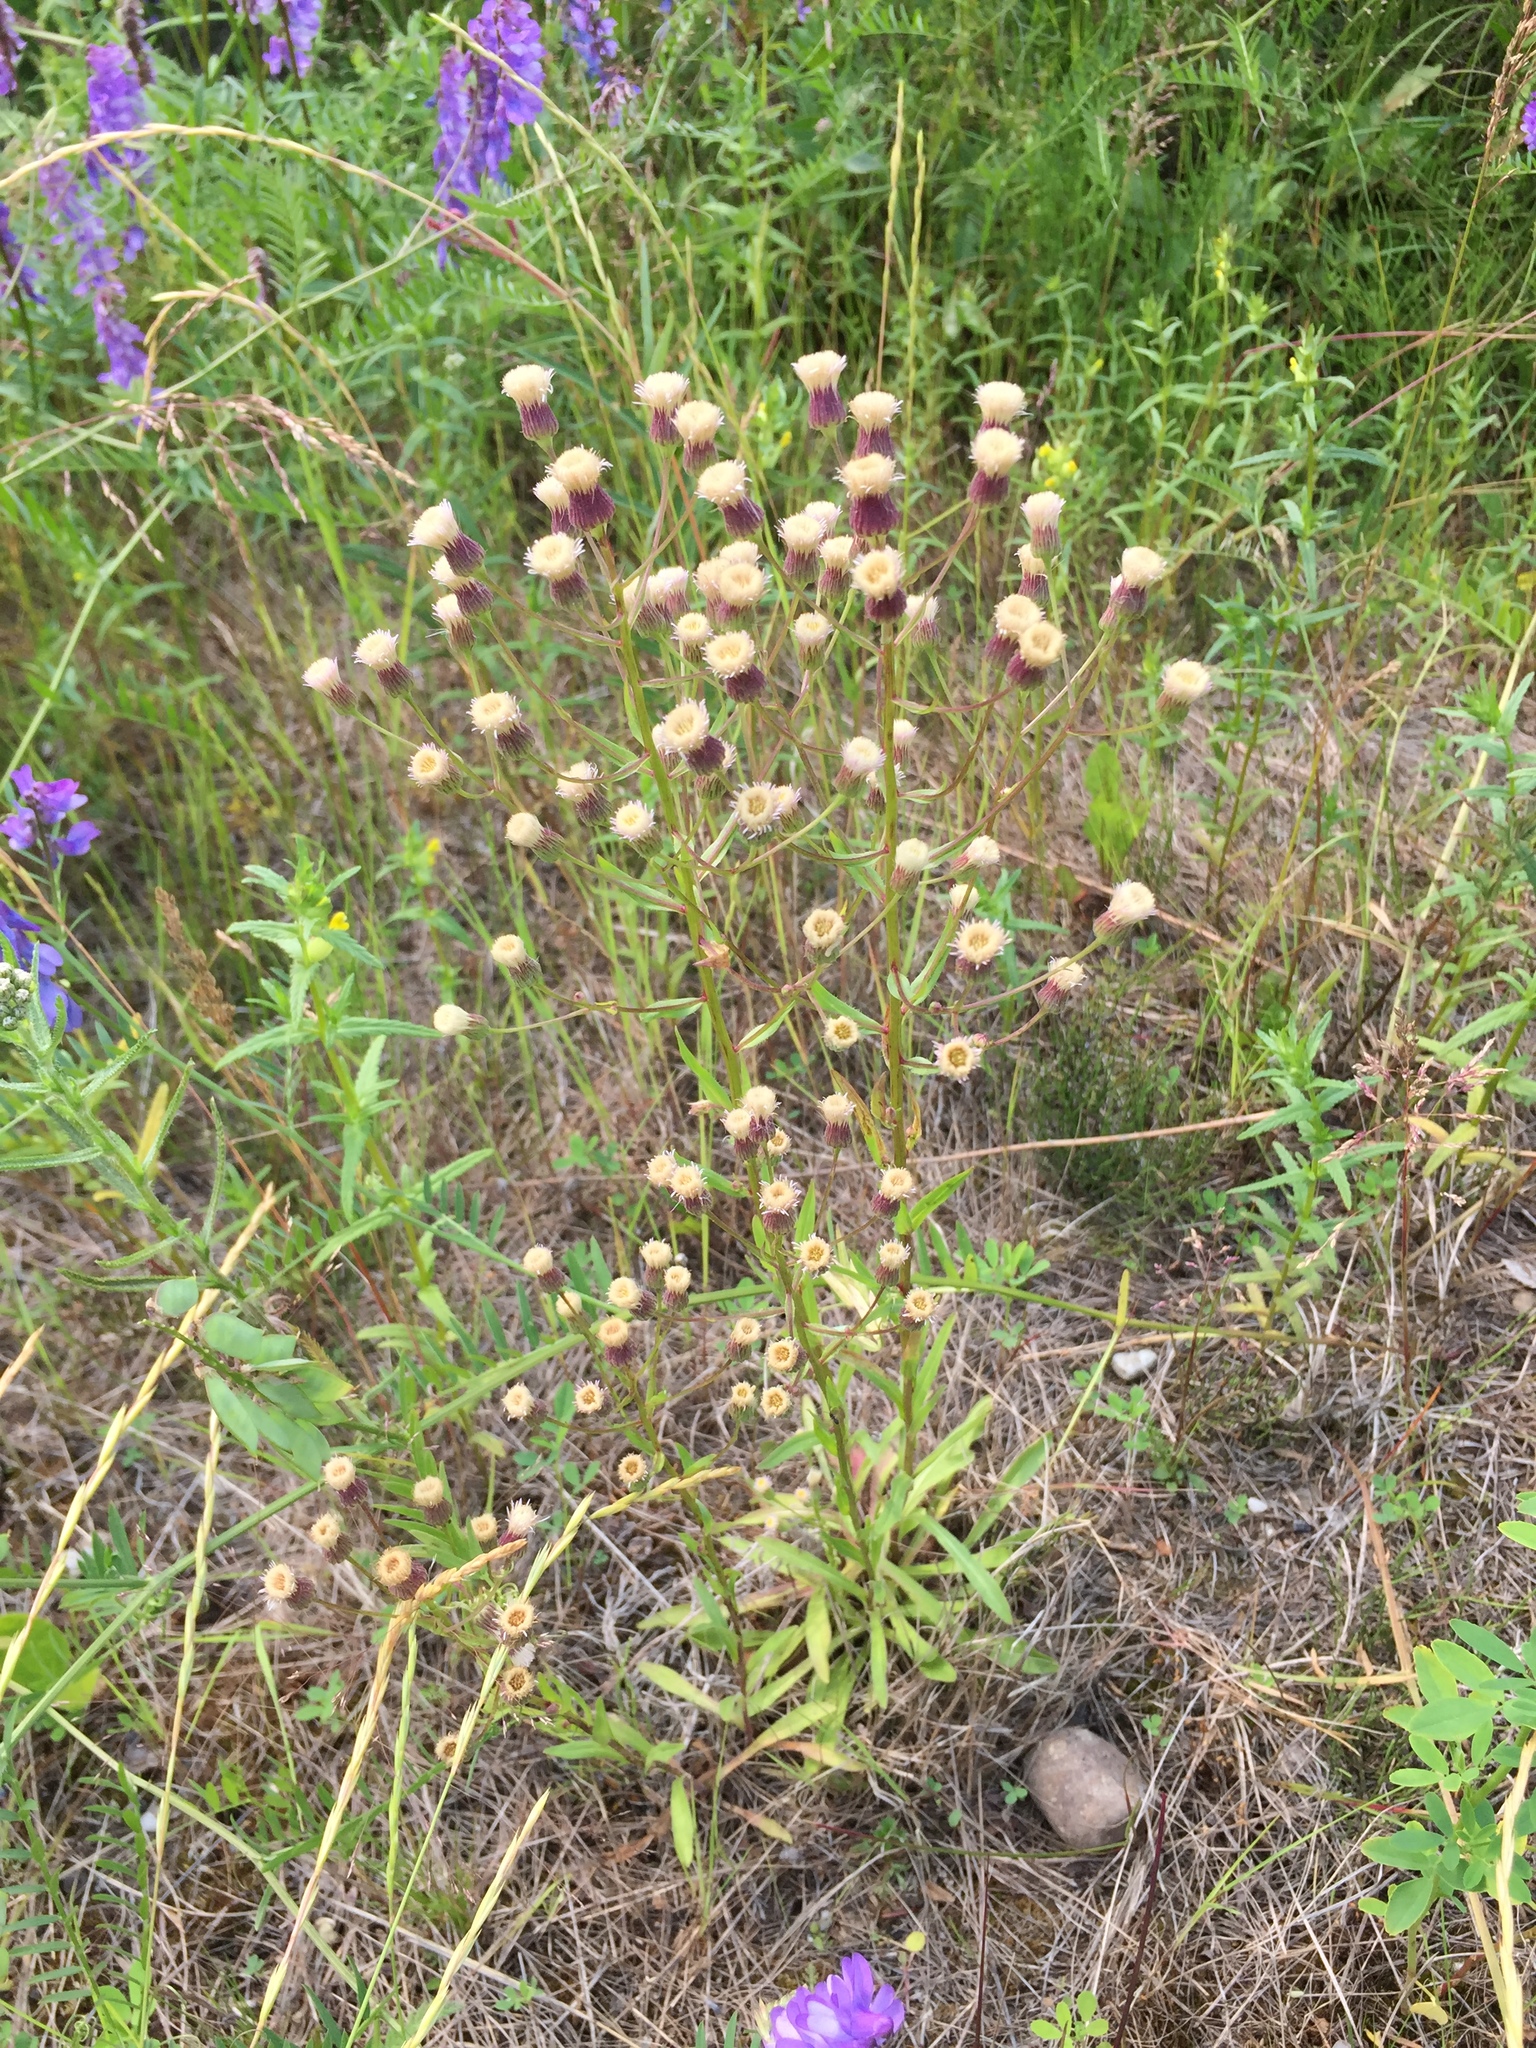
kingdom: Plantae
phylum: Tracheophyta
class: Magnoliopsida
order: Asterales
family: Asteraceae
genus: Erigeron
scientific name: Erigeron acris
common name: Blue fleabane
